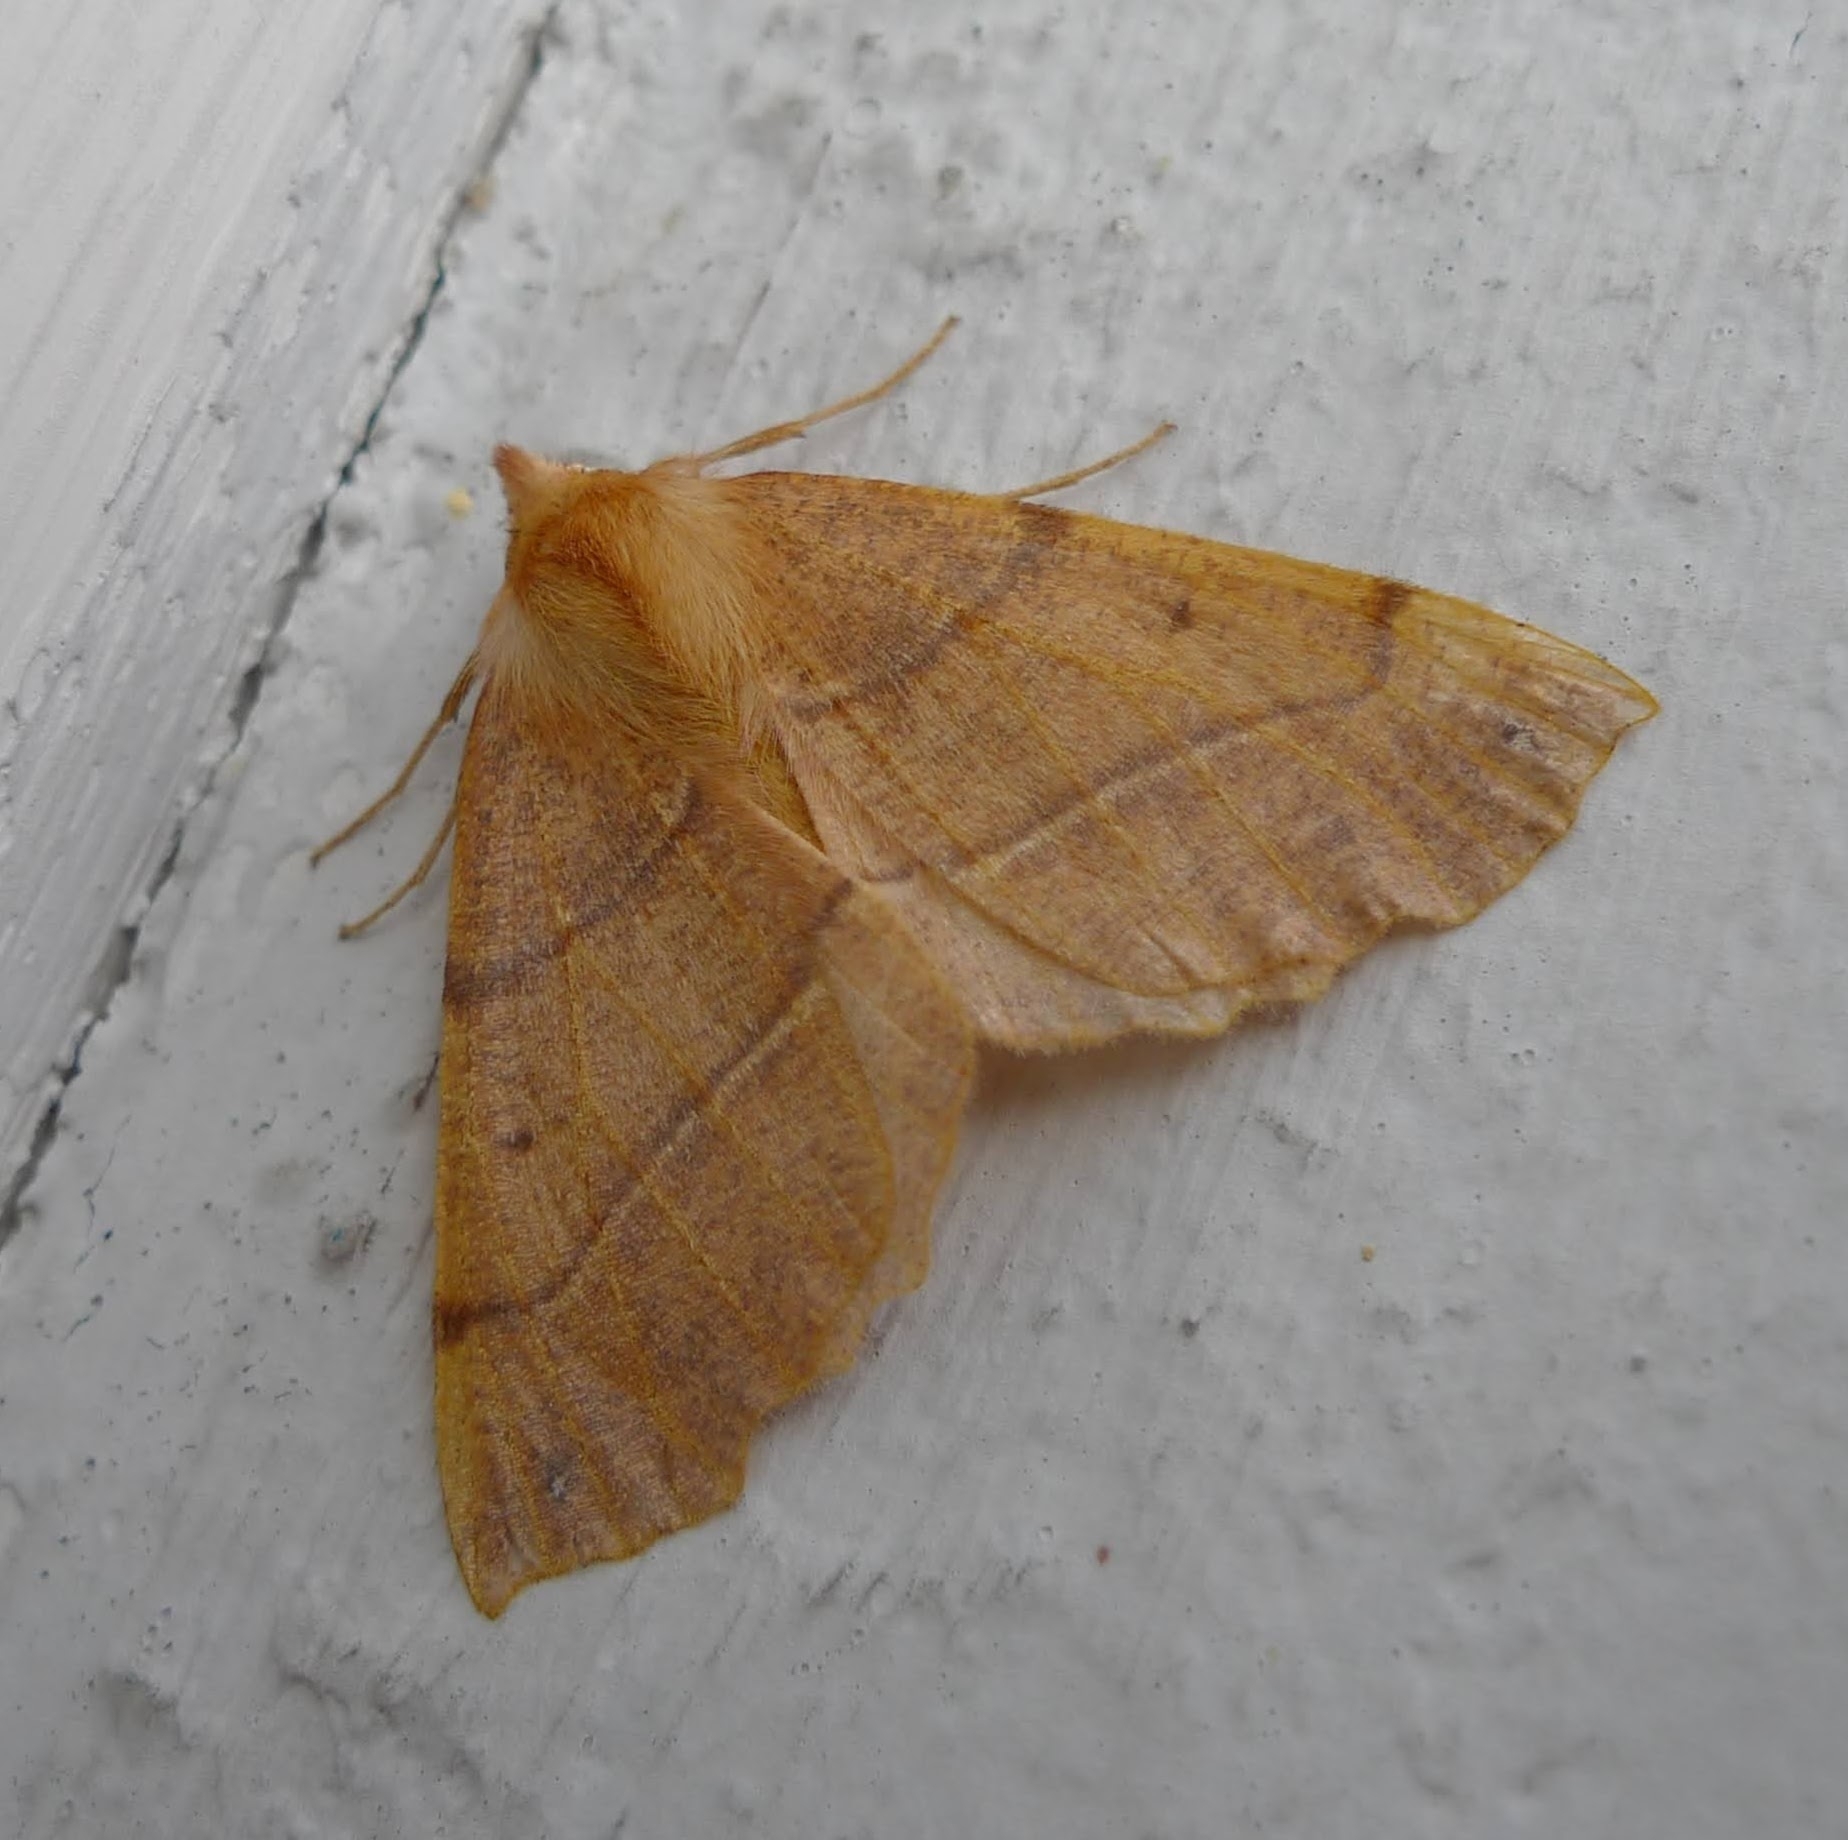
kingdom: Animalia
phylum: Arthropoda
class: Insecta
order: Lepidoptera
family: Geometridae
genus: Colotois
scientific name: Colotois pennaria
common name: Feathered thorn
